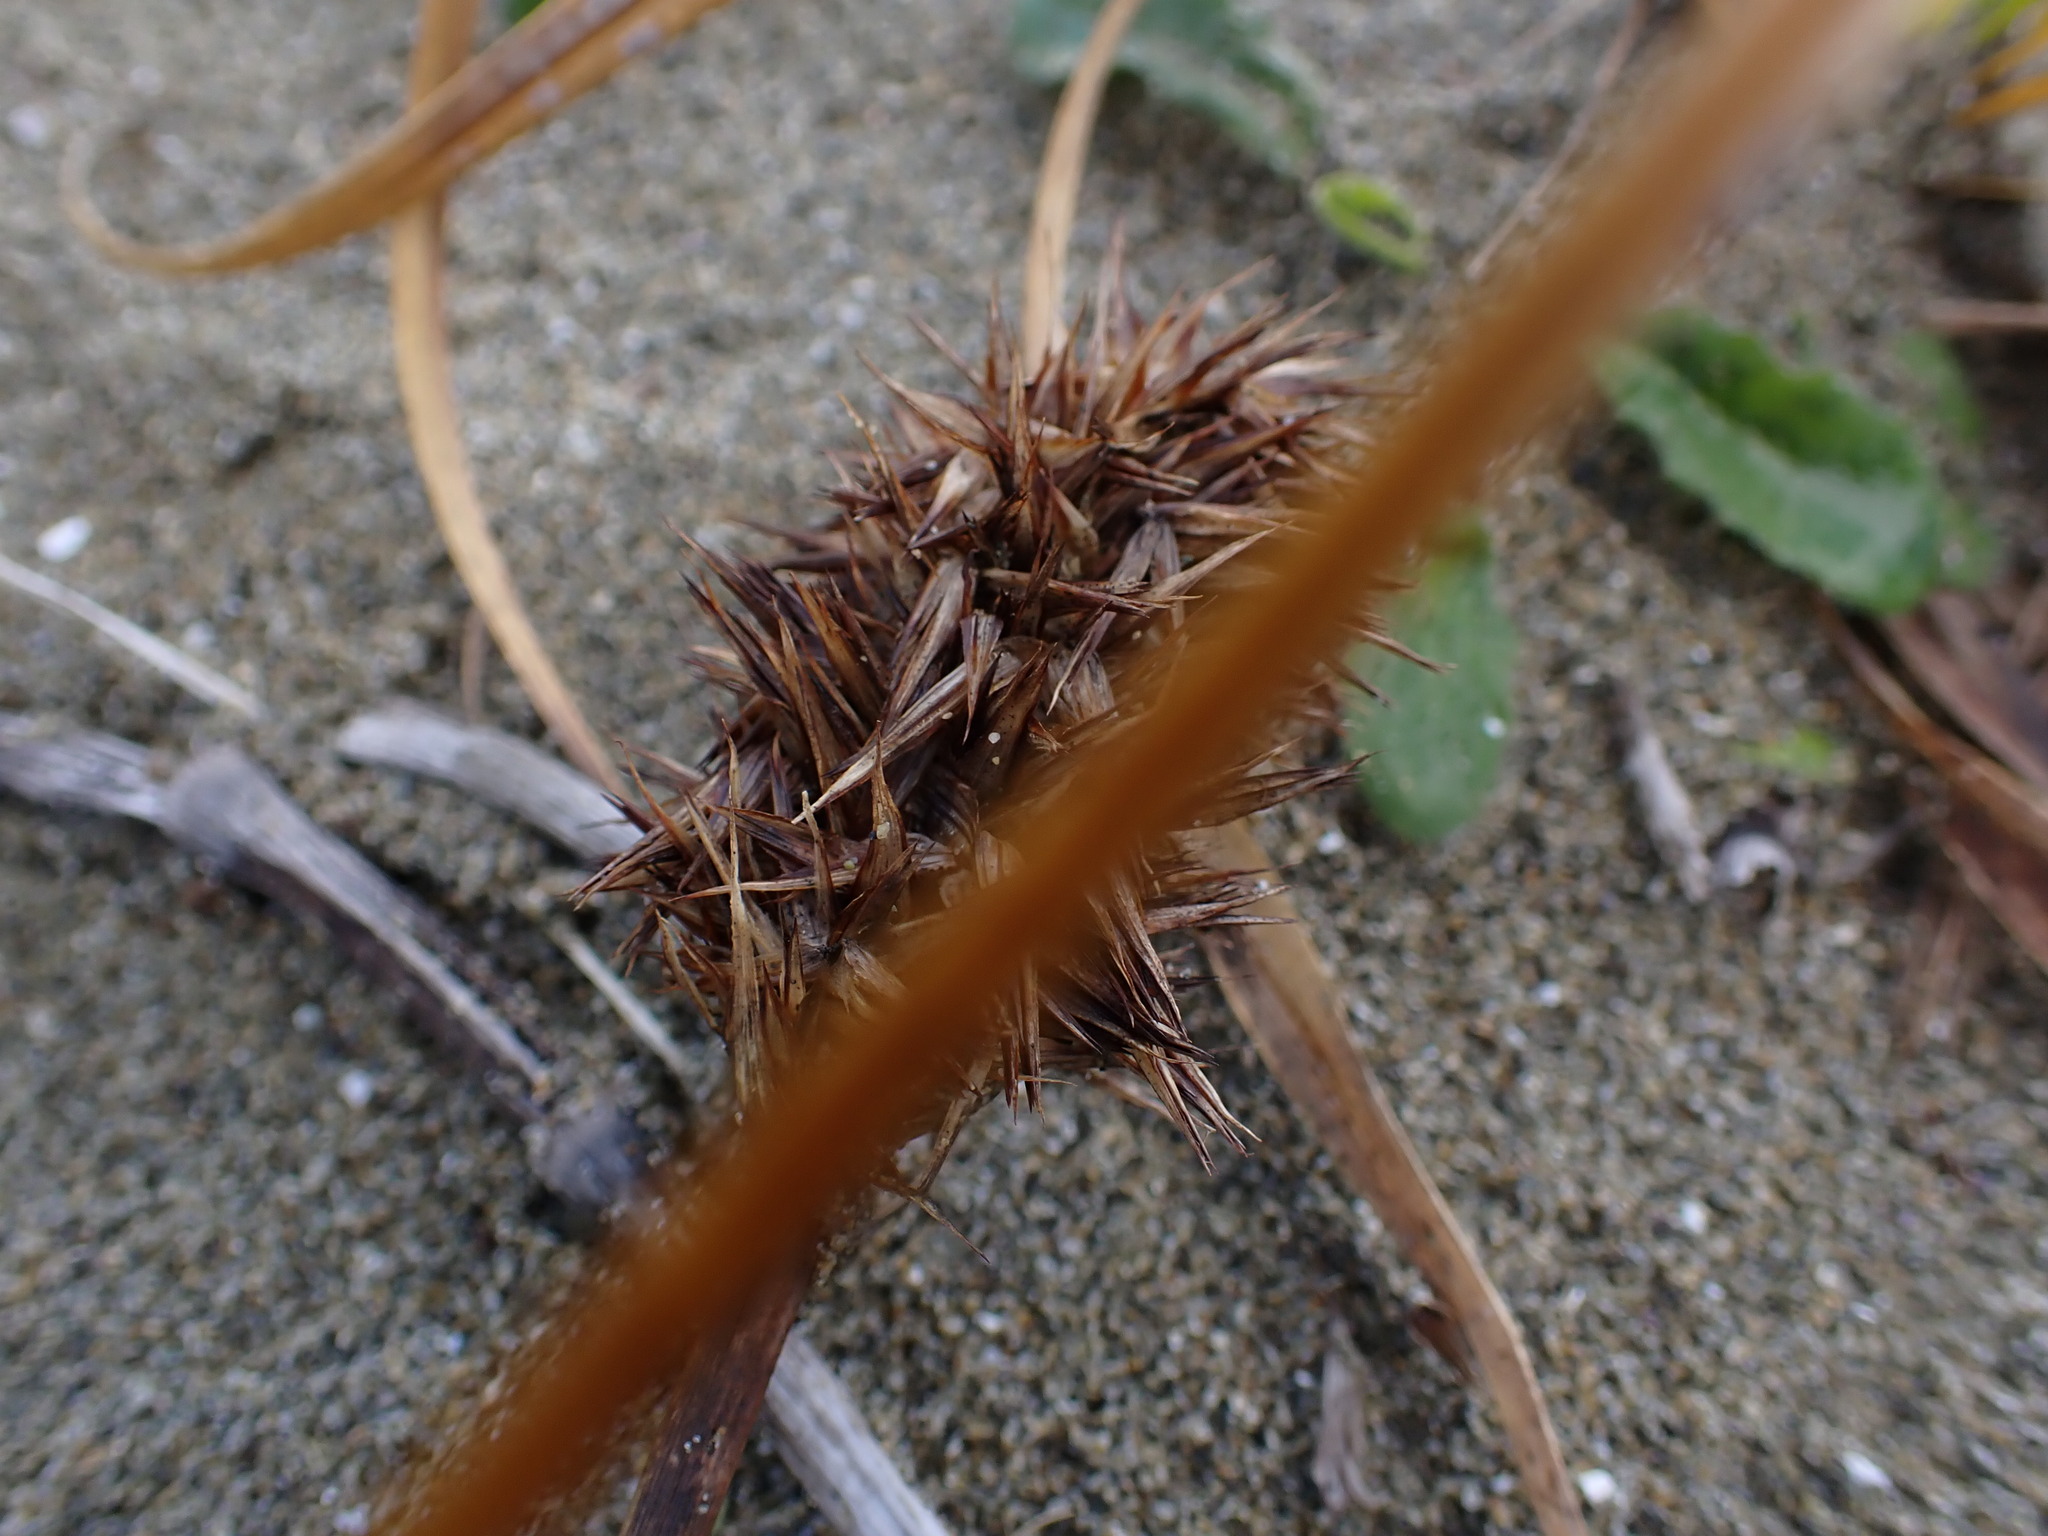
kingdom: Plantae
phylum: Tracheophyta
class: Liliopsida
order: Poales
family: Cyperaceae
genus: Carex
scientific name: Carex macrocephala
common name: Large-head sedge
